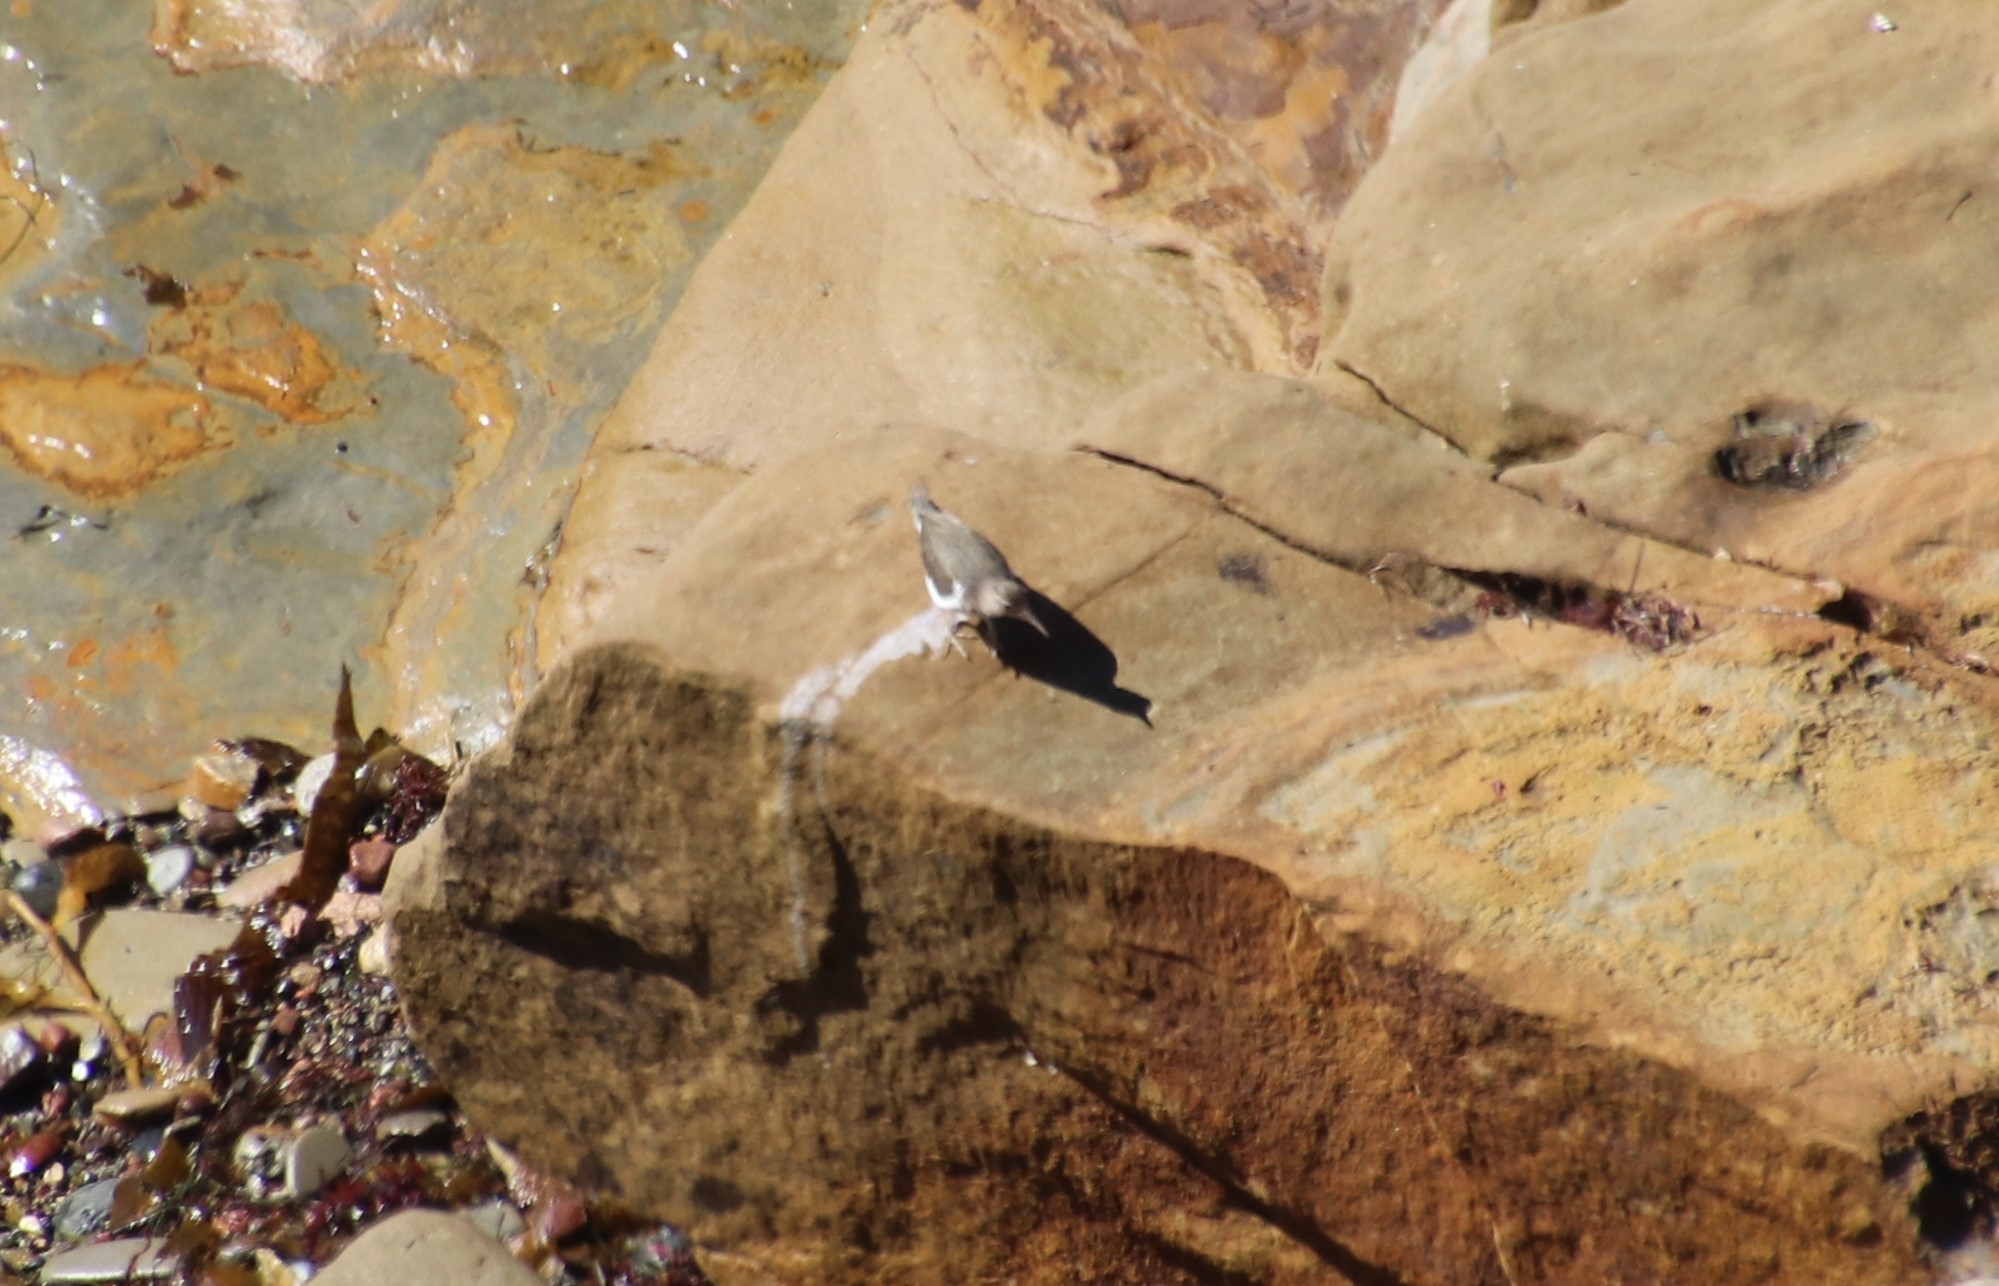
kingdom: Animalia
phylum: Chordata
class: Aves
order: Charadriiformes
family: Scolopacidae
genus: Actitis
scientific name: Actitis macularius
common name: Spotted sandpiper
